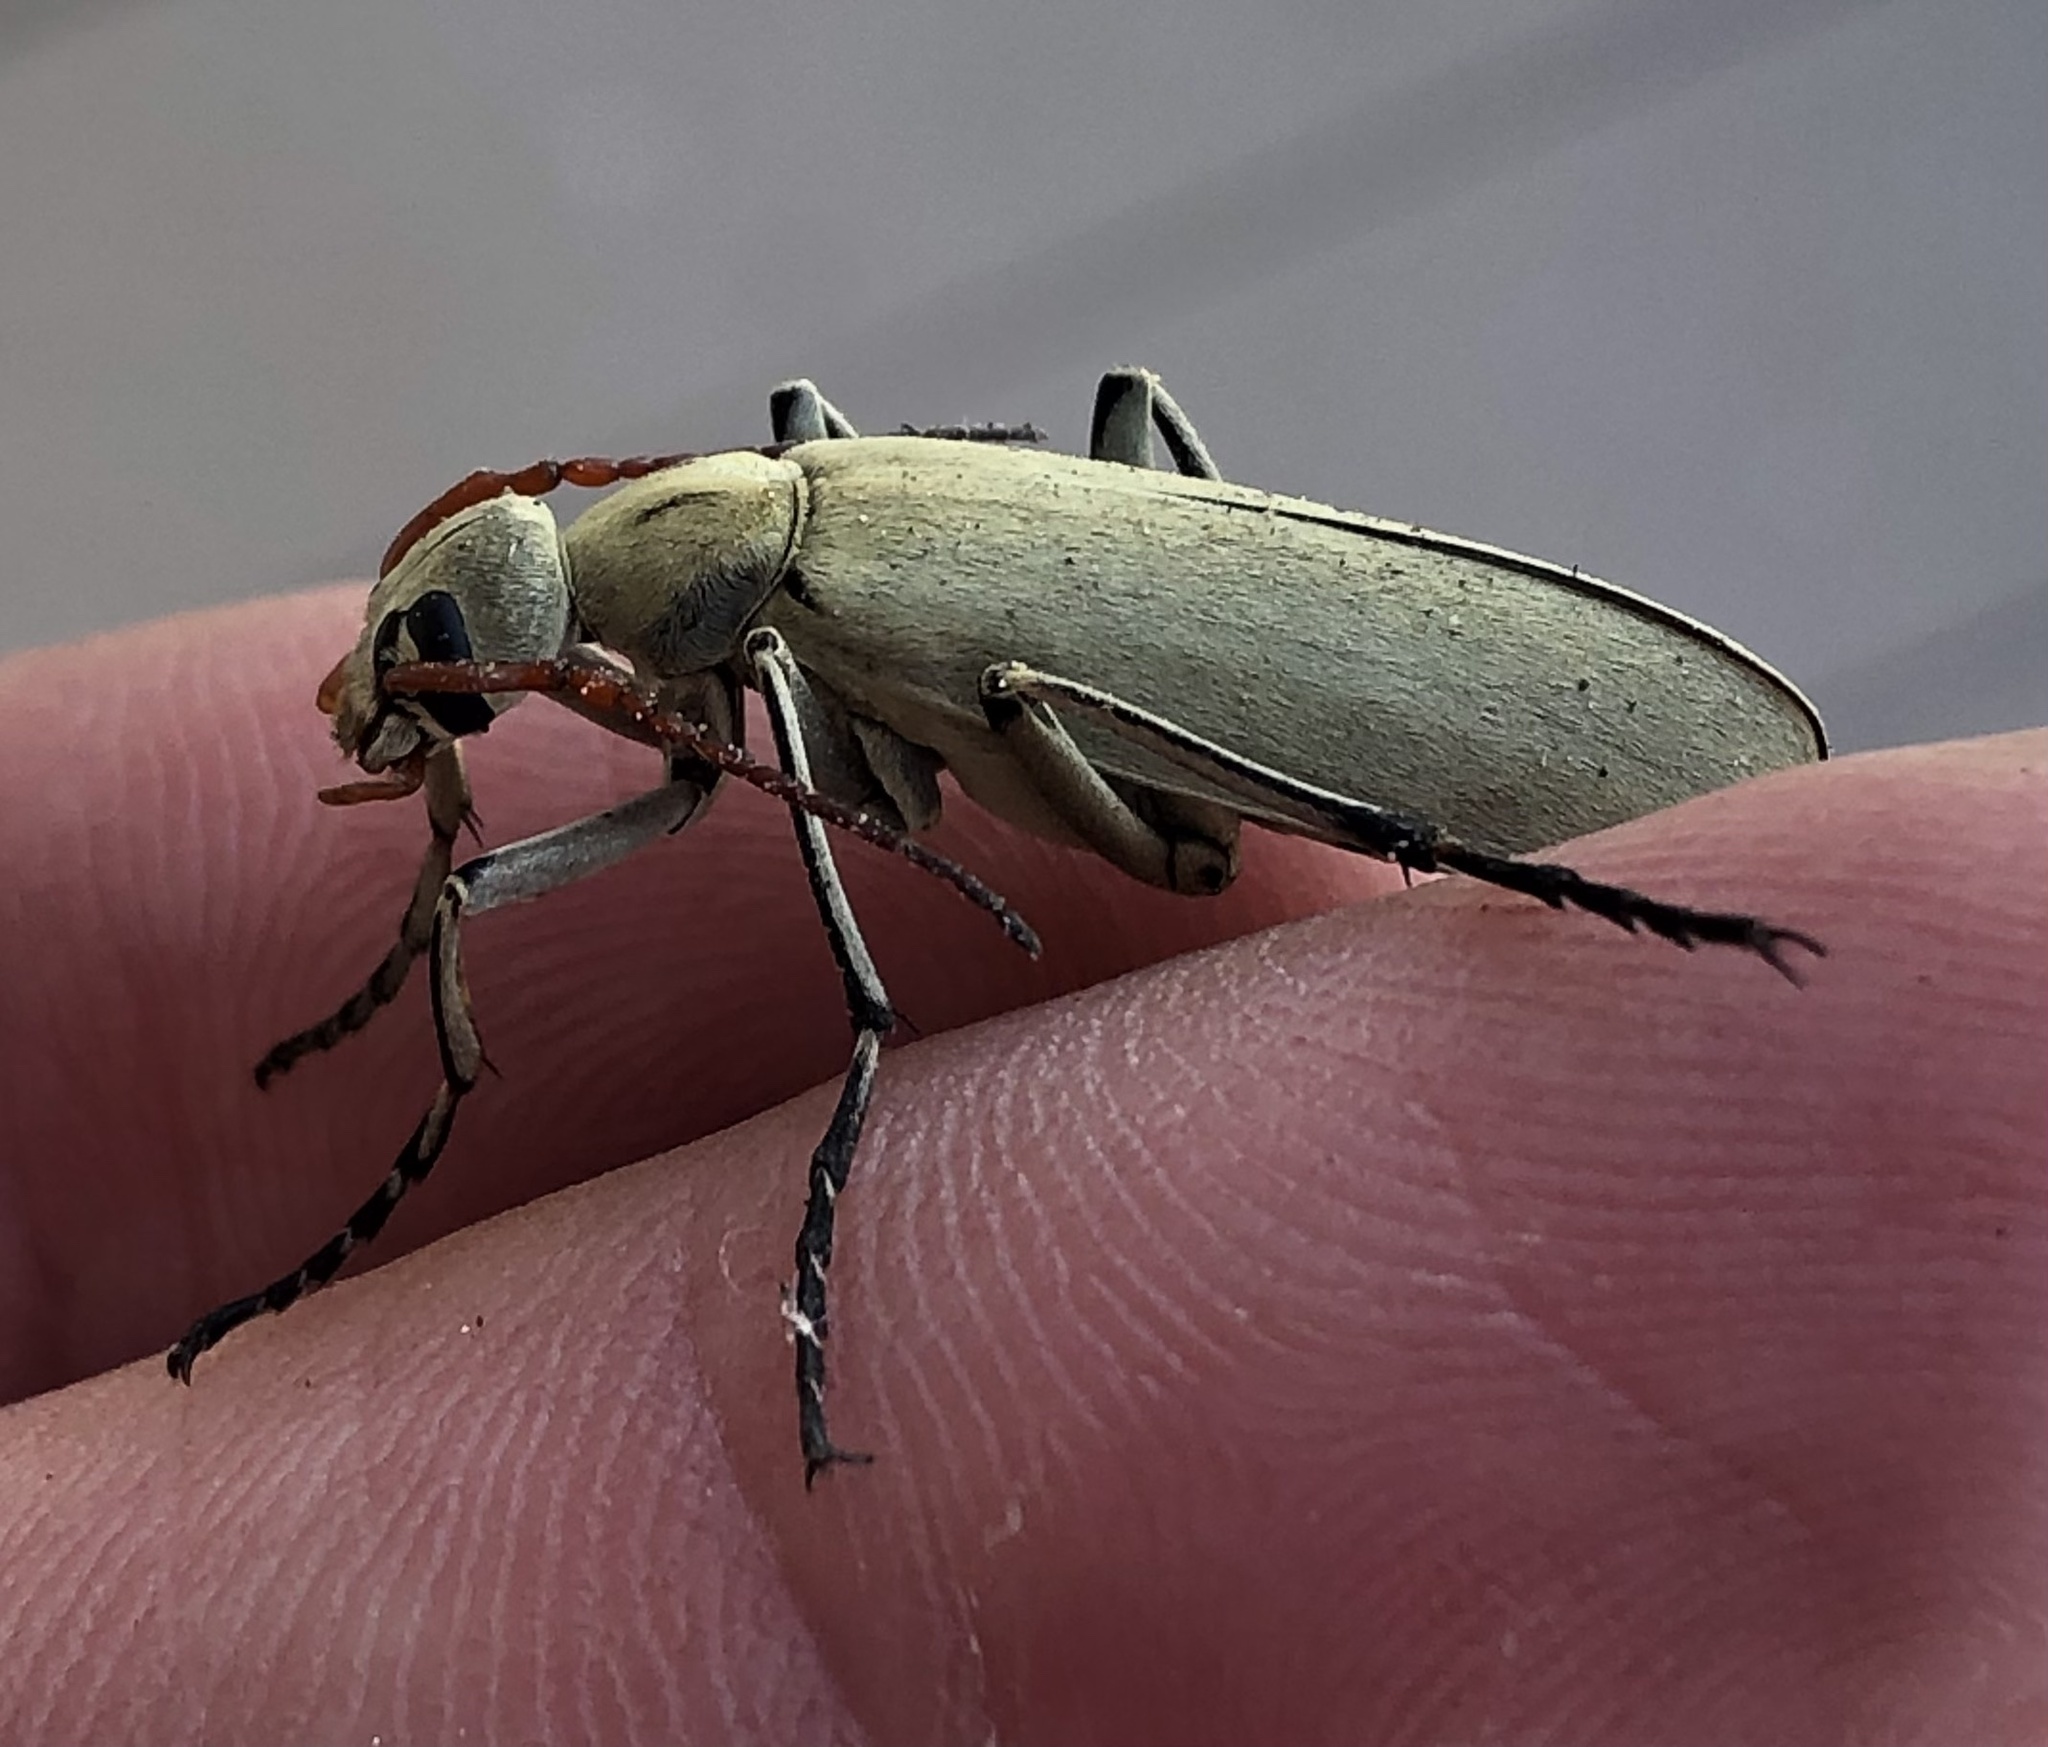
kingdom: Animalia
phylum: Arthropoda
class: Insecta
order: Coleoptera
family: Meloidae
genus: Epicauta
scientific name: Epicauta albida
